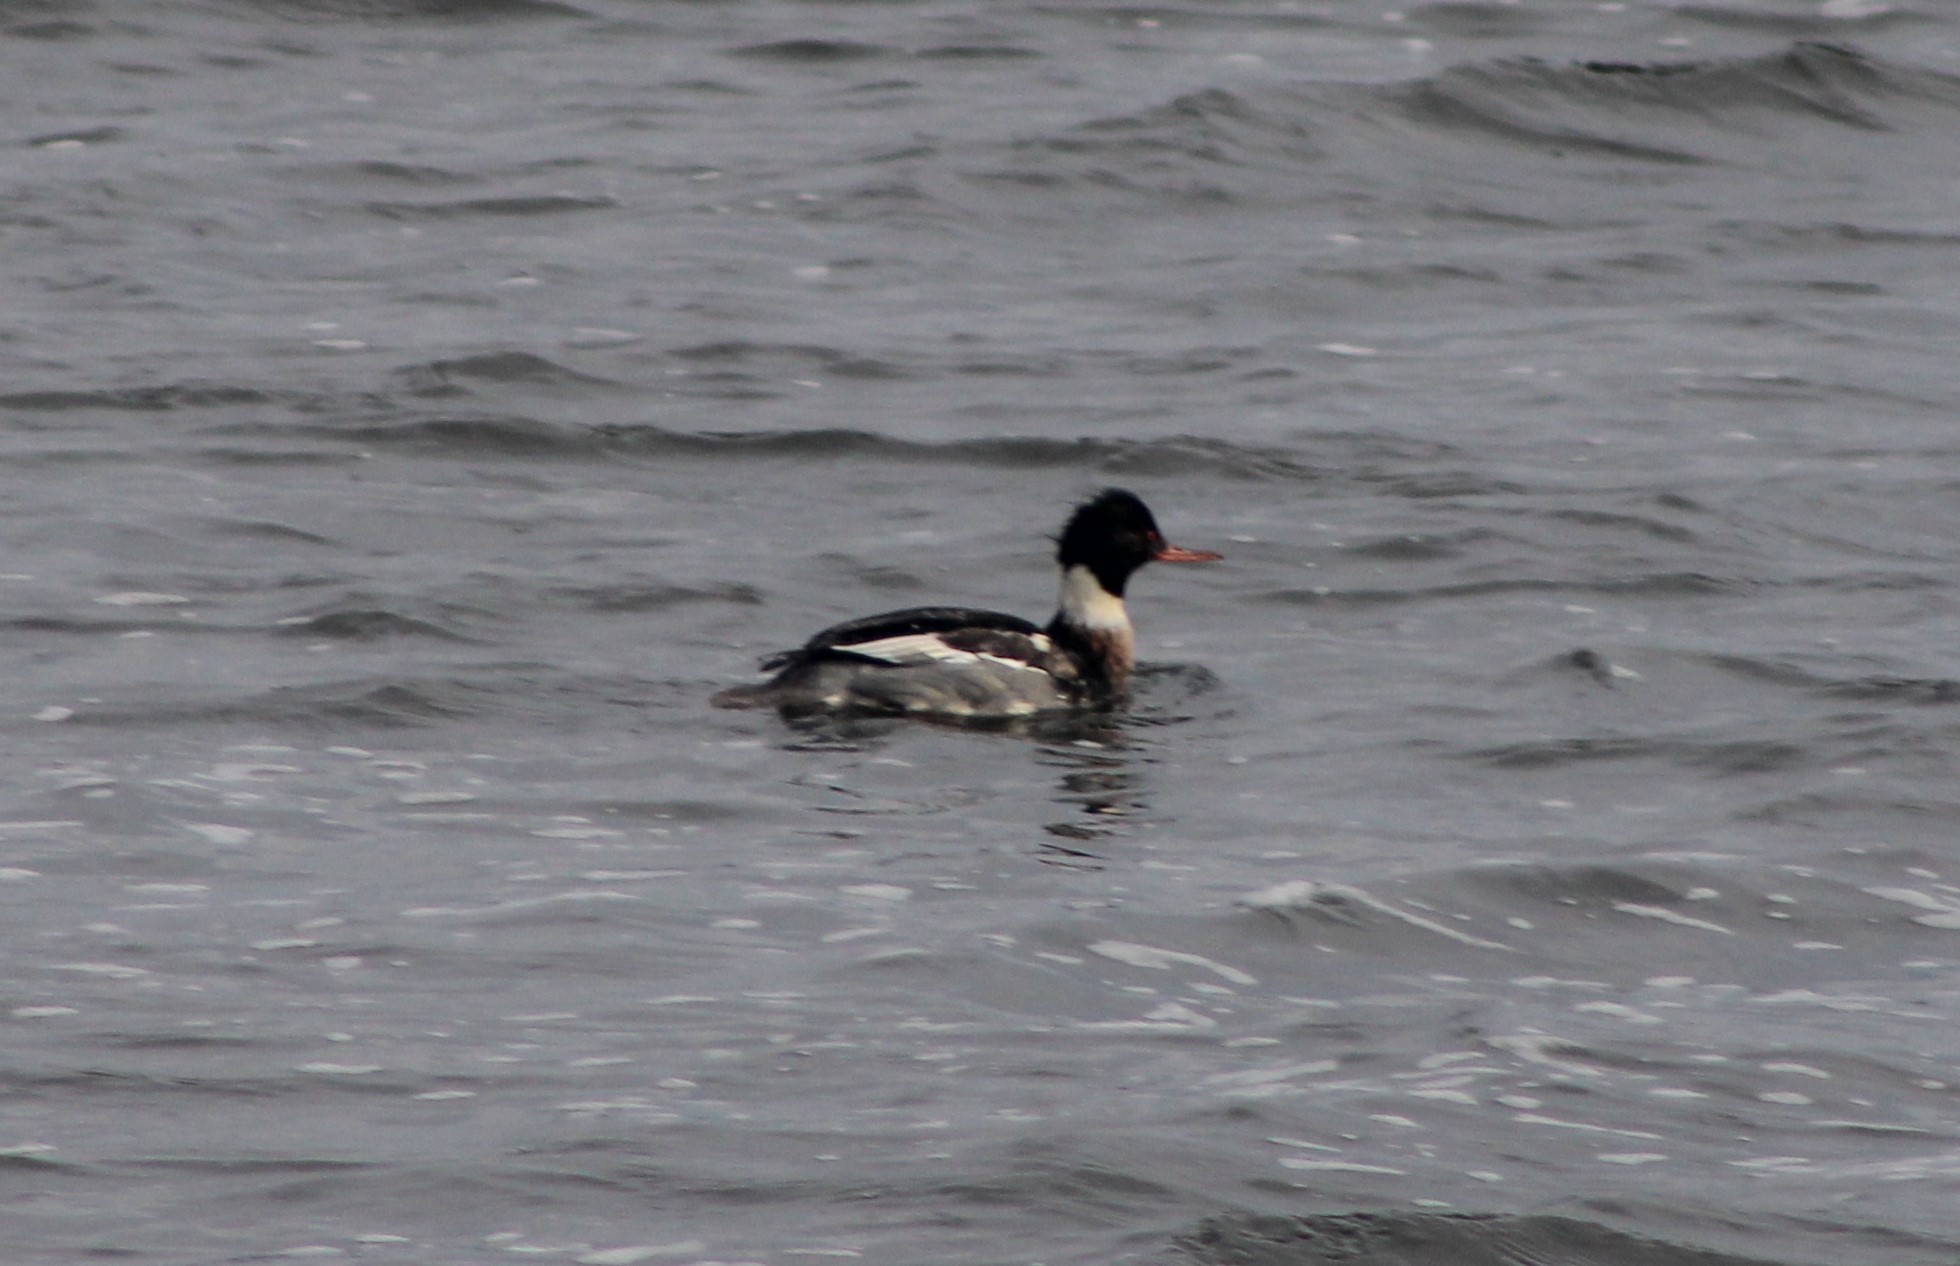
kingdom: Animalia
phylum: Chordata
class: Aves
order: Anseriformes
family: Anatidae
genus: Mergus
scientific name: Mergus serrator
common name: Red-breasted merganser
